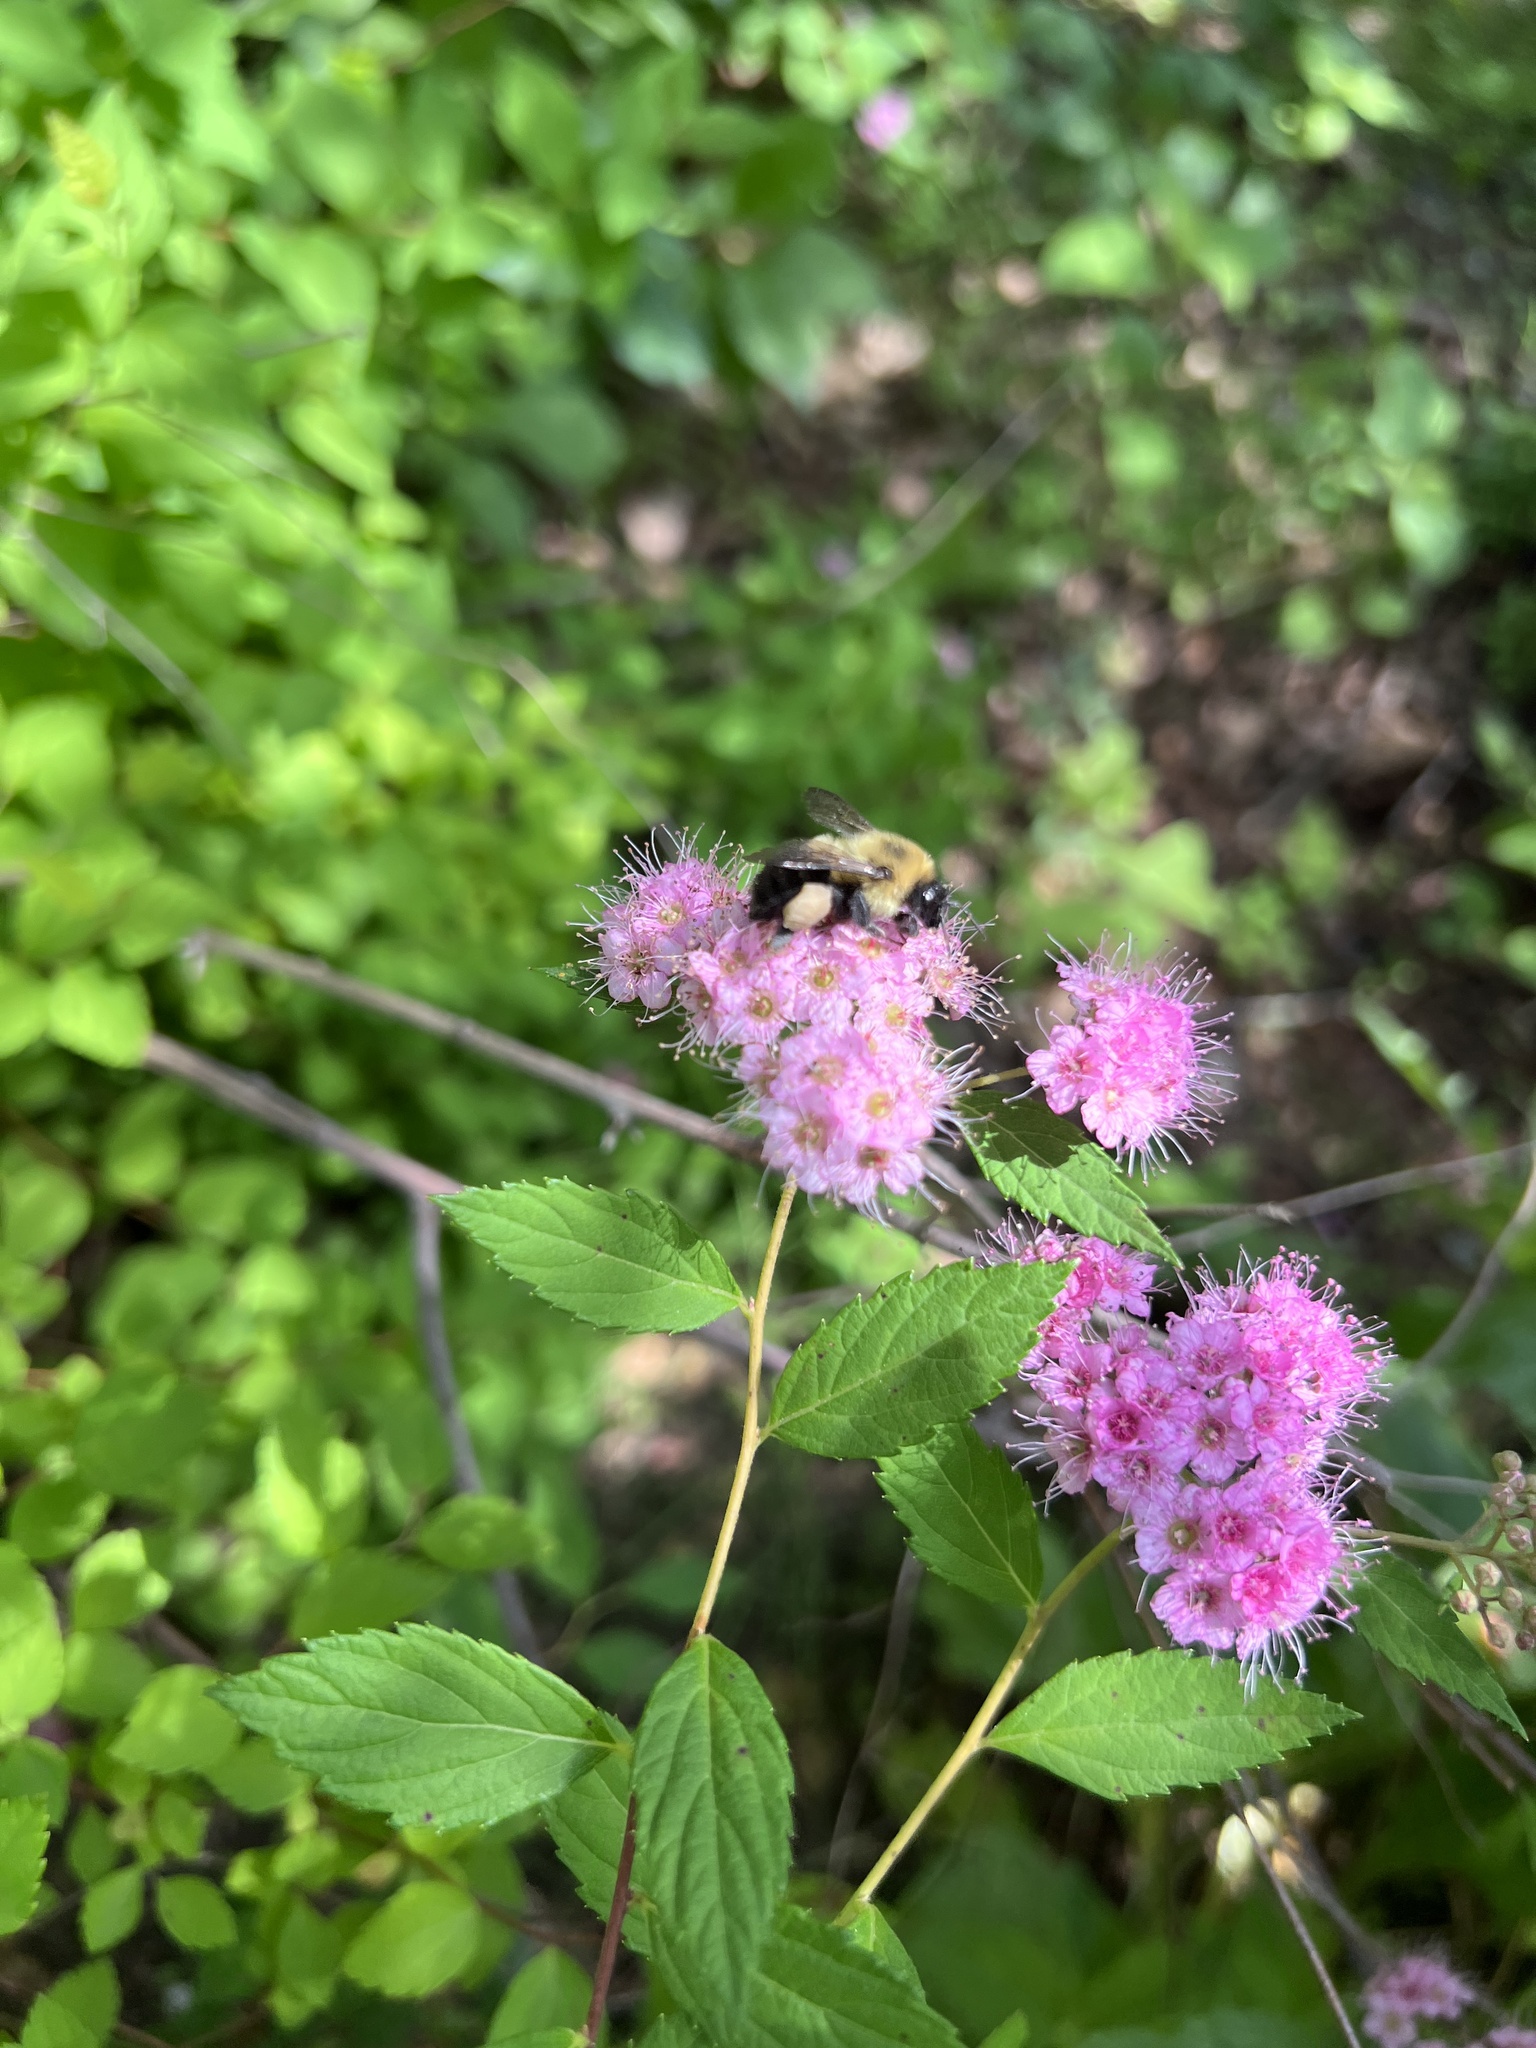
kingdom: Animalia
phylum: Arthropoda
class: Insecta
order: Hymenoptera
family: Apidae
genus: Bombus
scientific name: Bombus bimaculatus
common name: Two-spotted bumble bee
